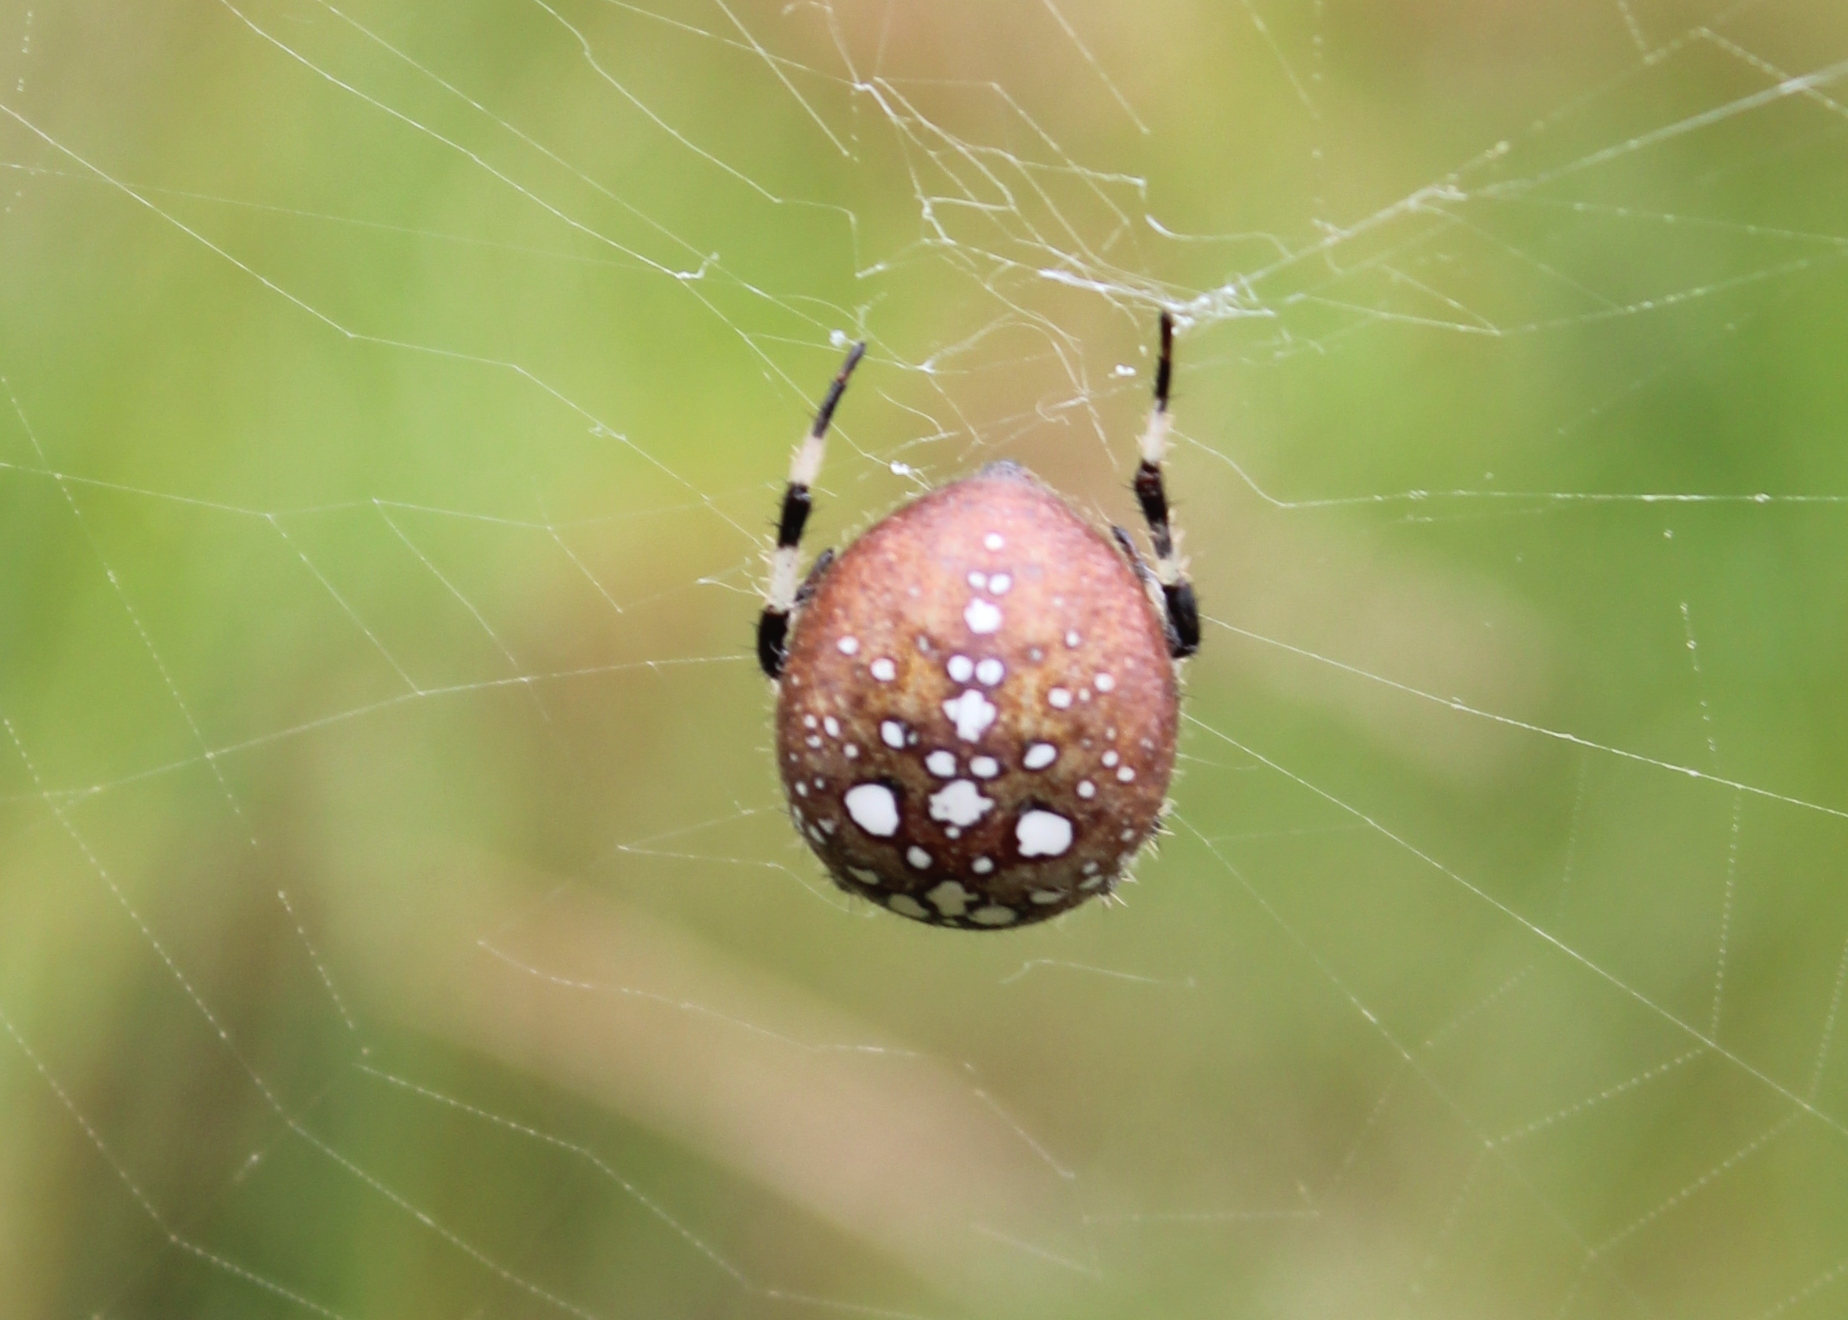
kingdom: Animalia
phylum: Arthropoda
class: Arachnida
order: Araneae
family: Araneidae
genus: Araneus
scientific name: Araneus trifolium
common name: Shamrock orbweaver
